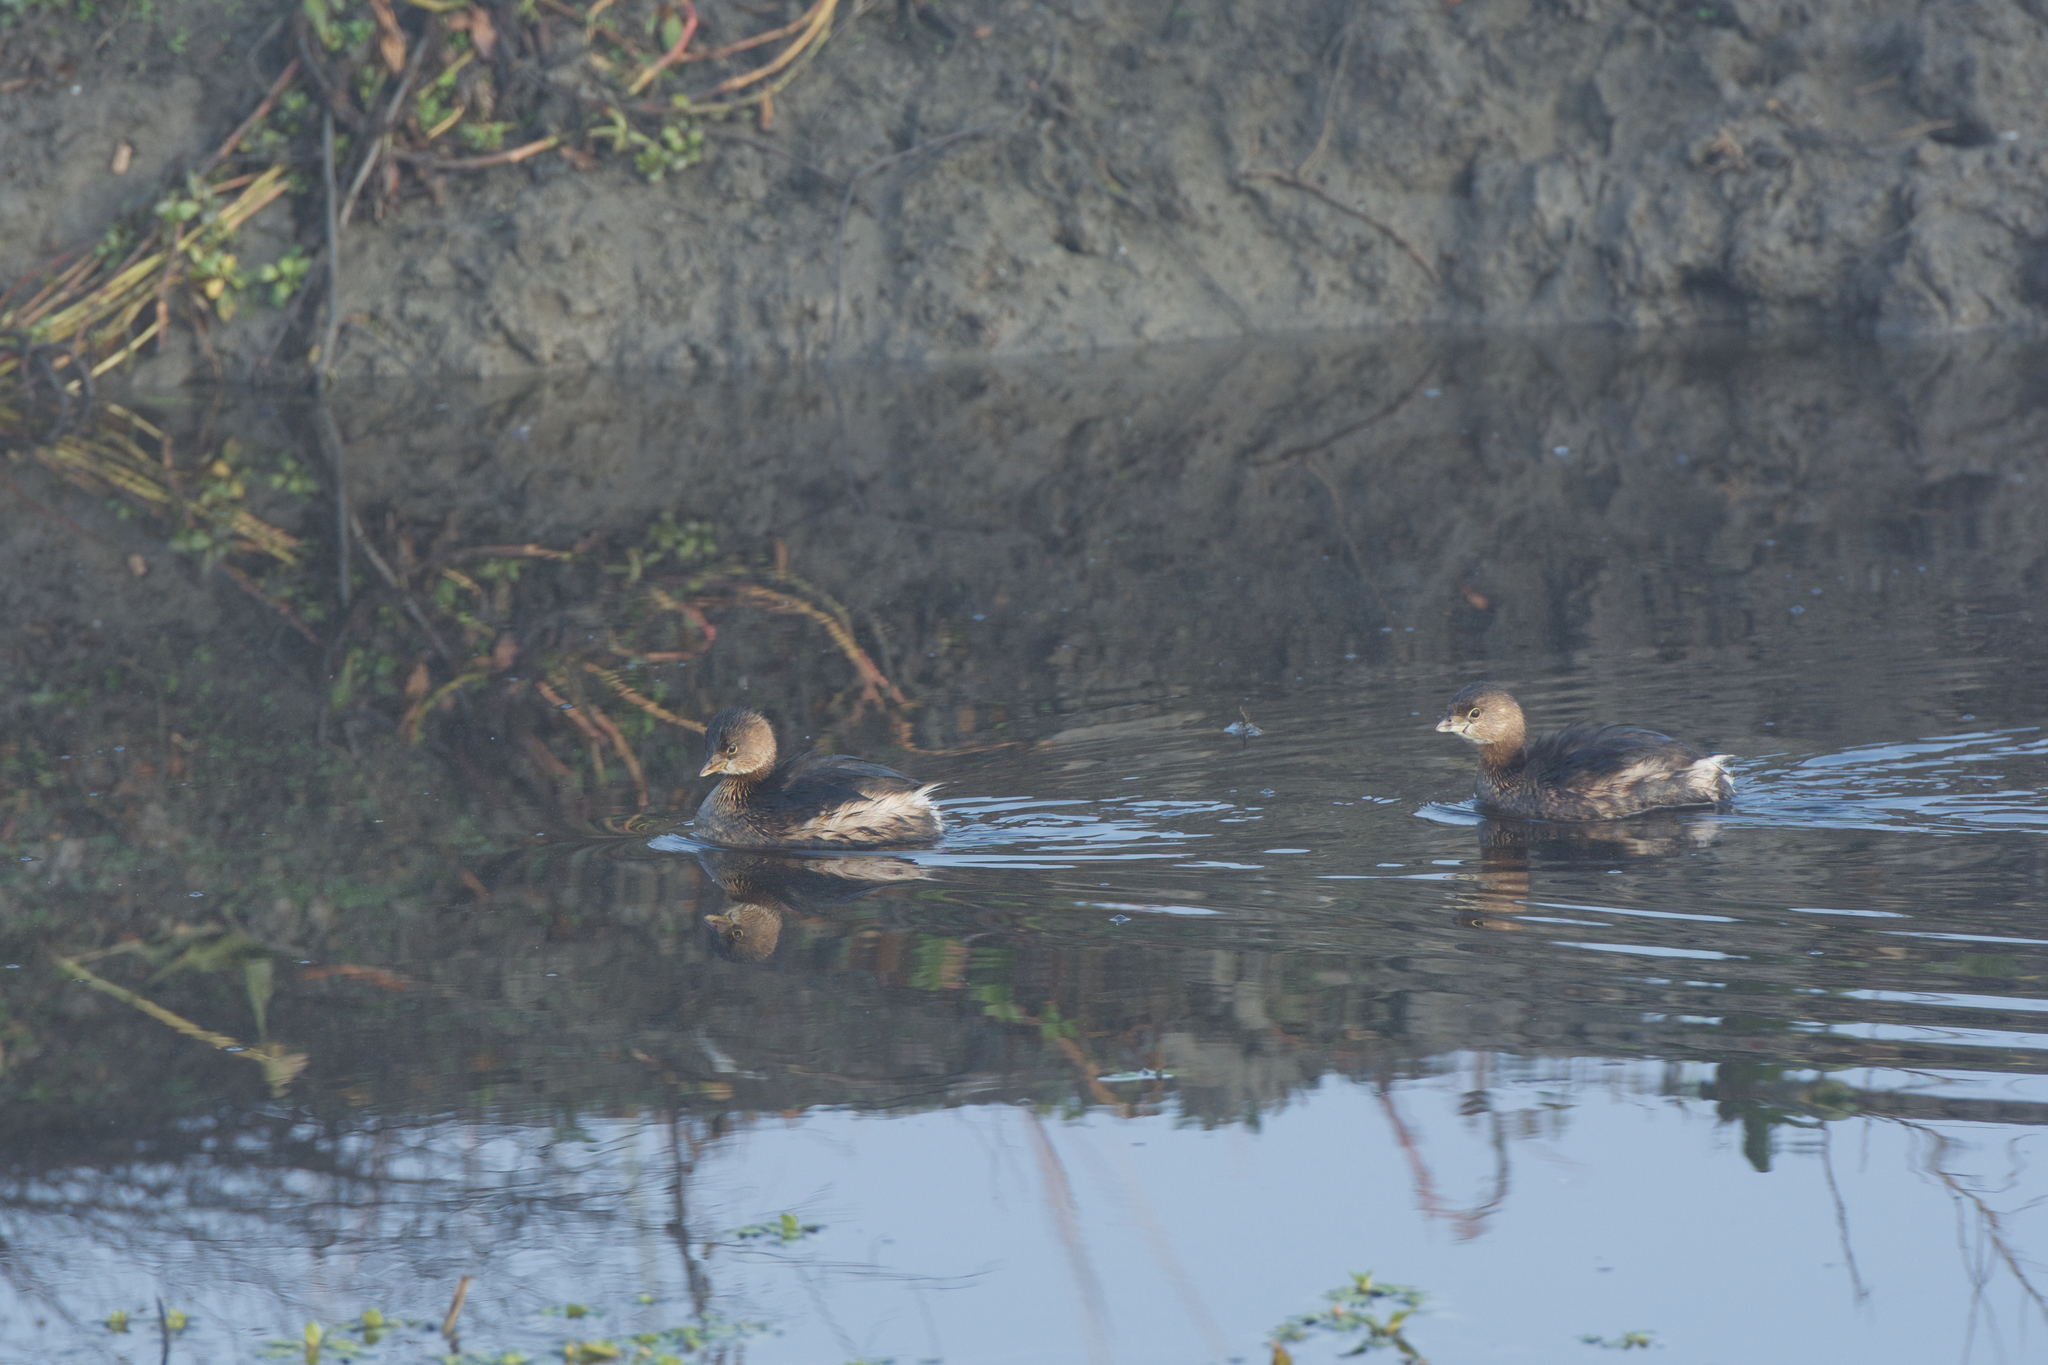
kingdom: Animalia
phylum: Chordata
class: Aves
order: Podicipediformes
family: Podicipedidae
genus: Podilymbus
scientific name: Podilymbus podiceps
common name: Pied-billed grebe
